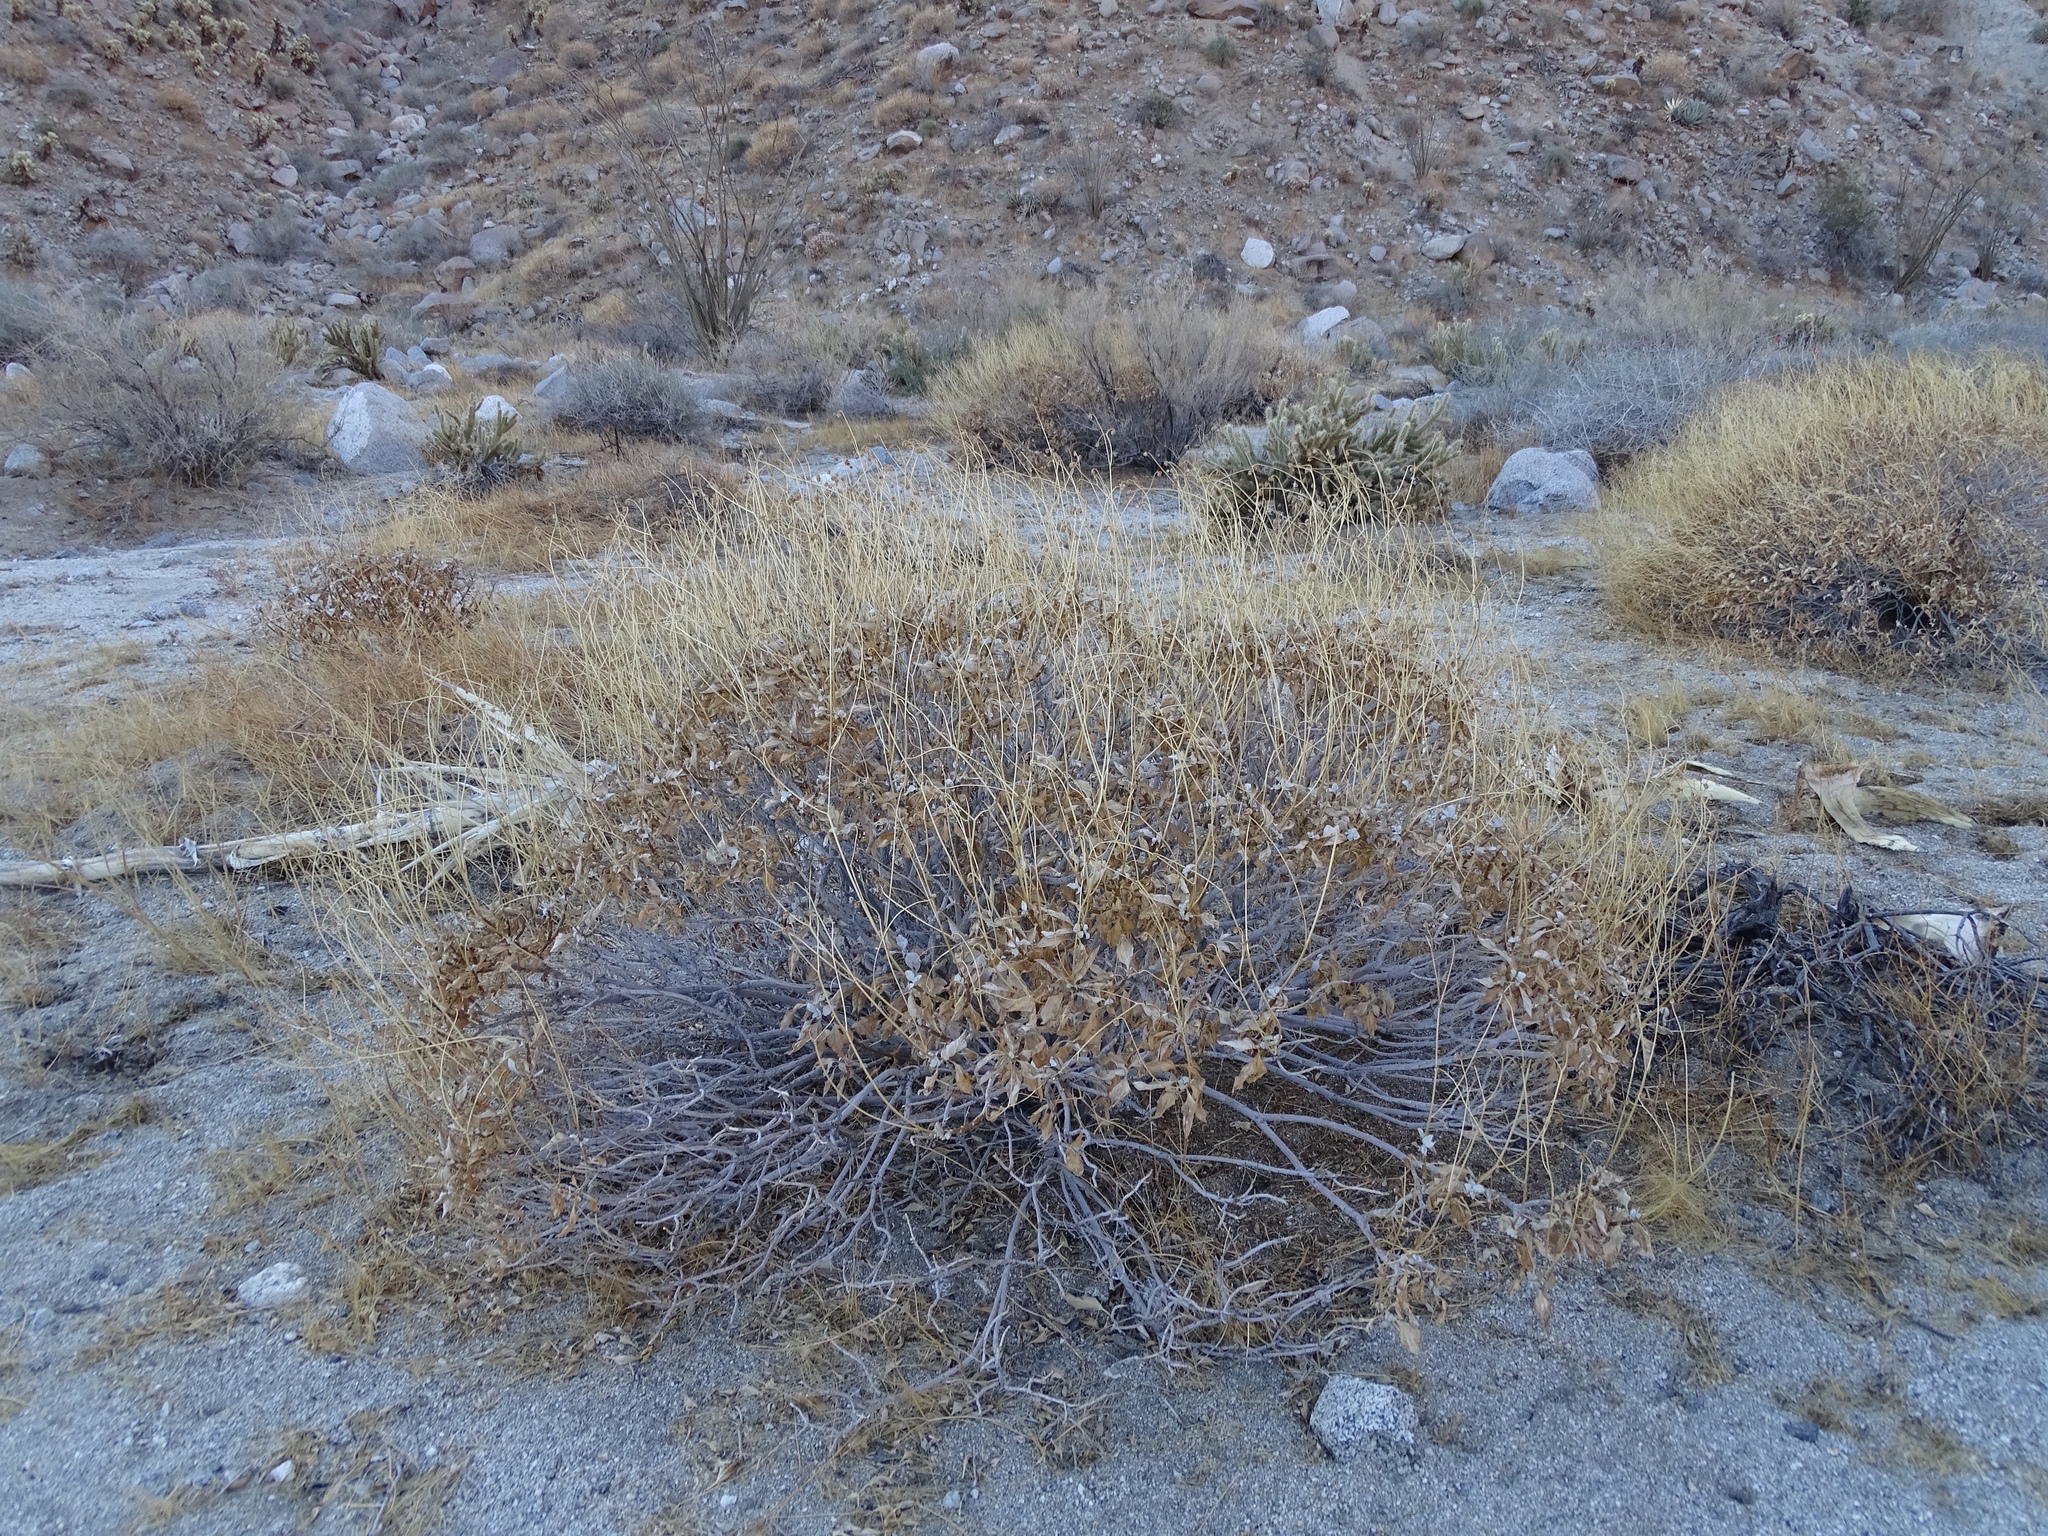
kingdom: Plantae
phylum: Tracheophyta
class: Magnoliopsida
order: Asterales
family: Asteraceae
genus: Encelia
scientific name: Encelia farinosa
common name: Brittlebush
